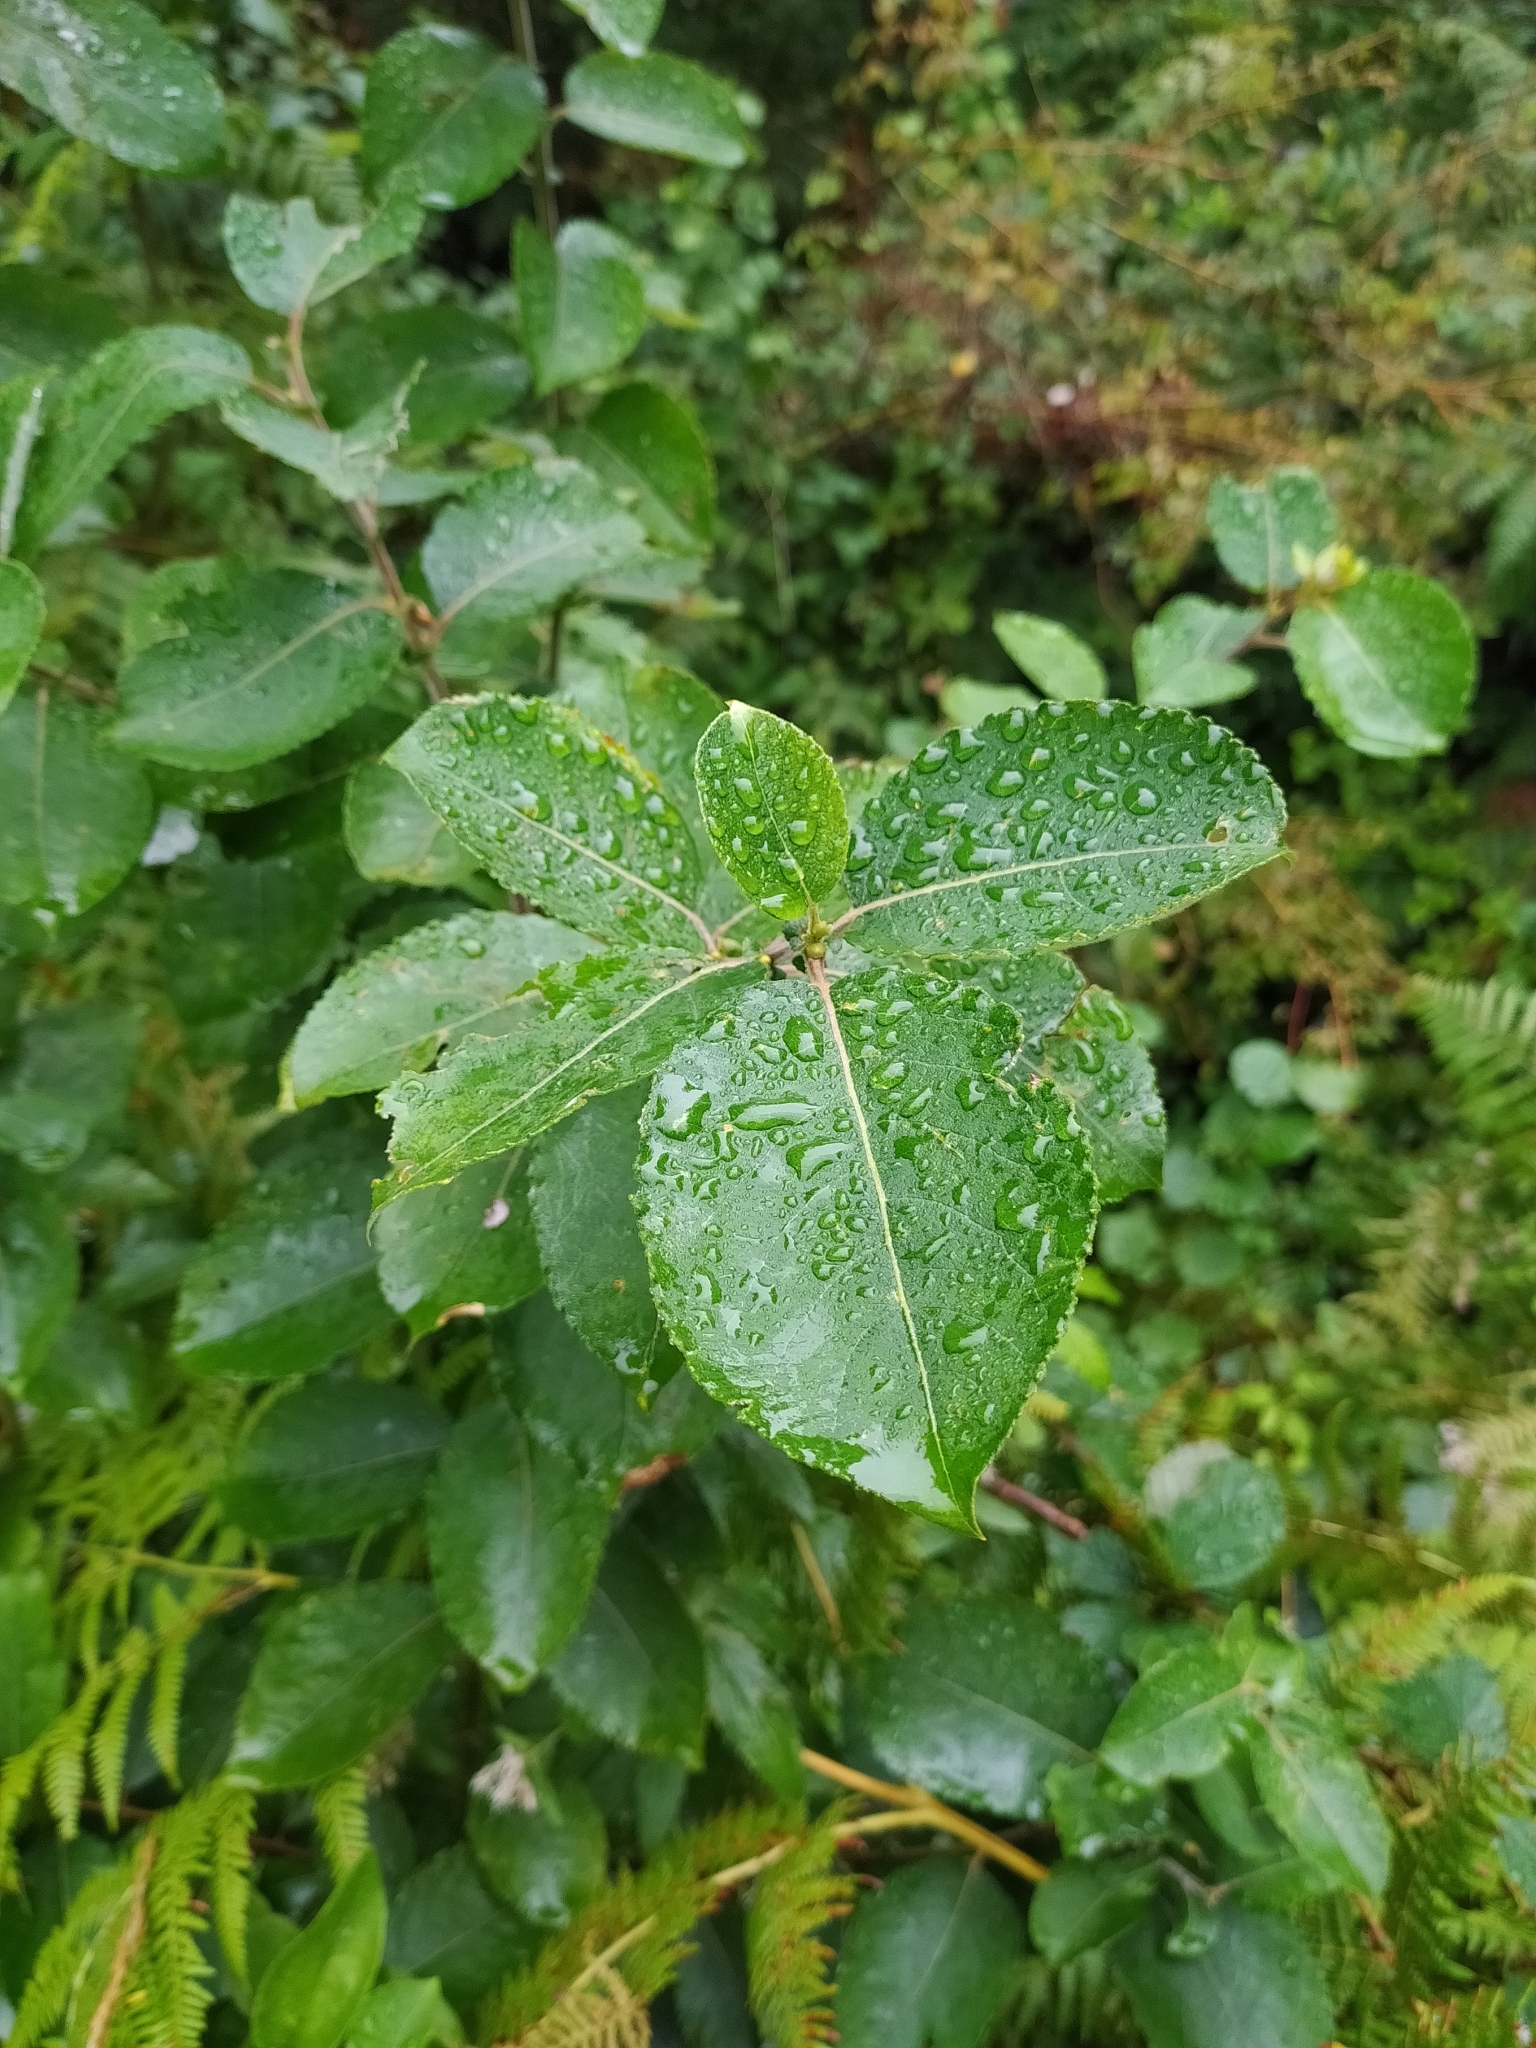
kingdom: Plantae
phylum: Tracheophyta
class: Magnoliopsida
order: Malpighiales
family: Salicaceae
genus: Salix
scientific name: Salix caprea
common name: Goat willow
